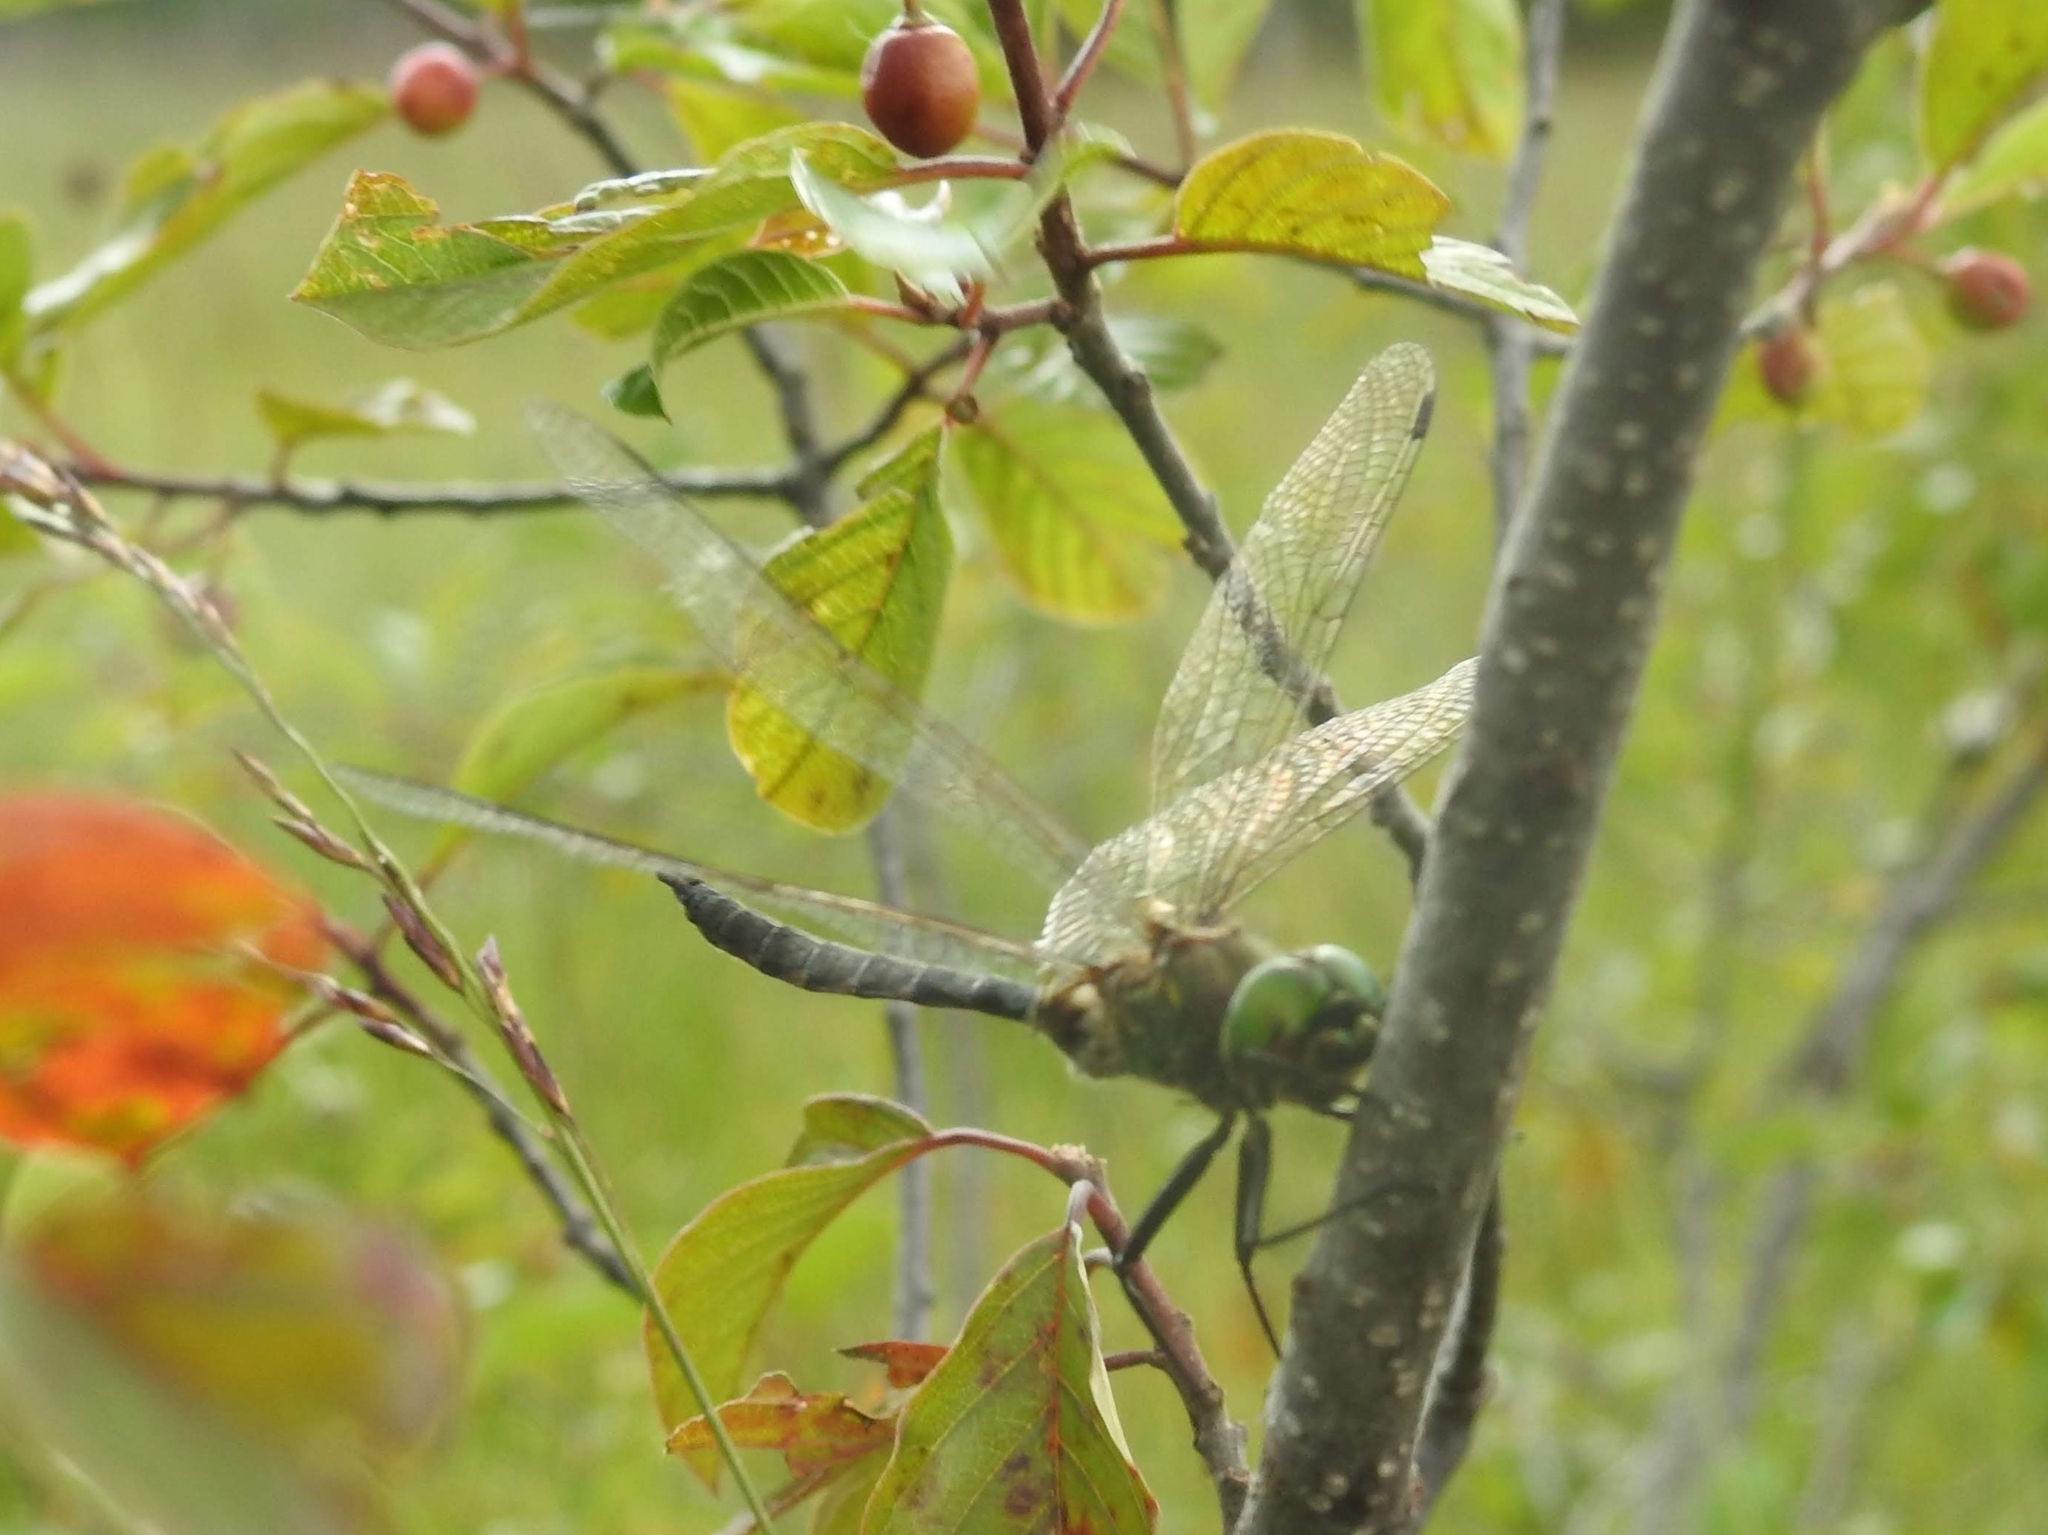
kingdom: Animalia
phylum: Arthropoda
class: Insecta
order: Odonata
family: Corduliidae
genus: Somatochlora
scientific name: Somatochlora flavomaculata
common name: Yellow-spotted emerald
